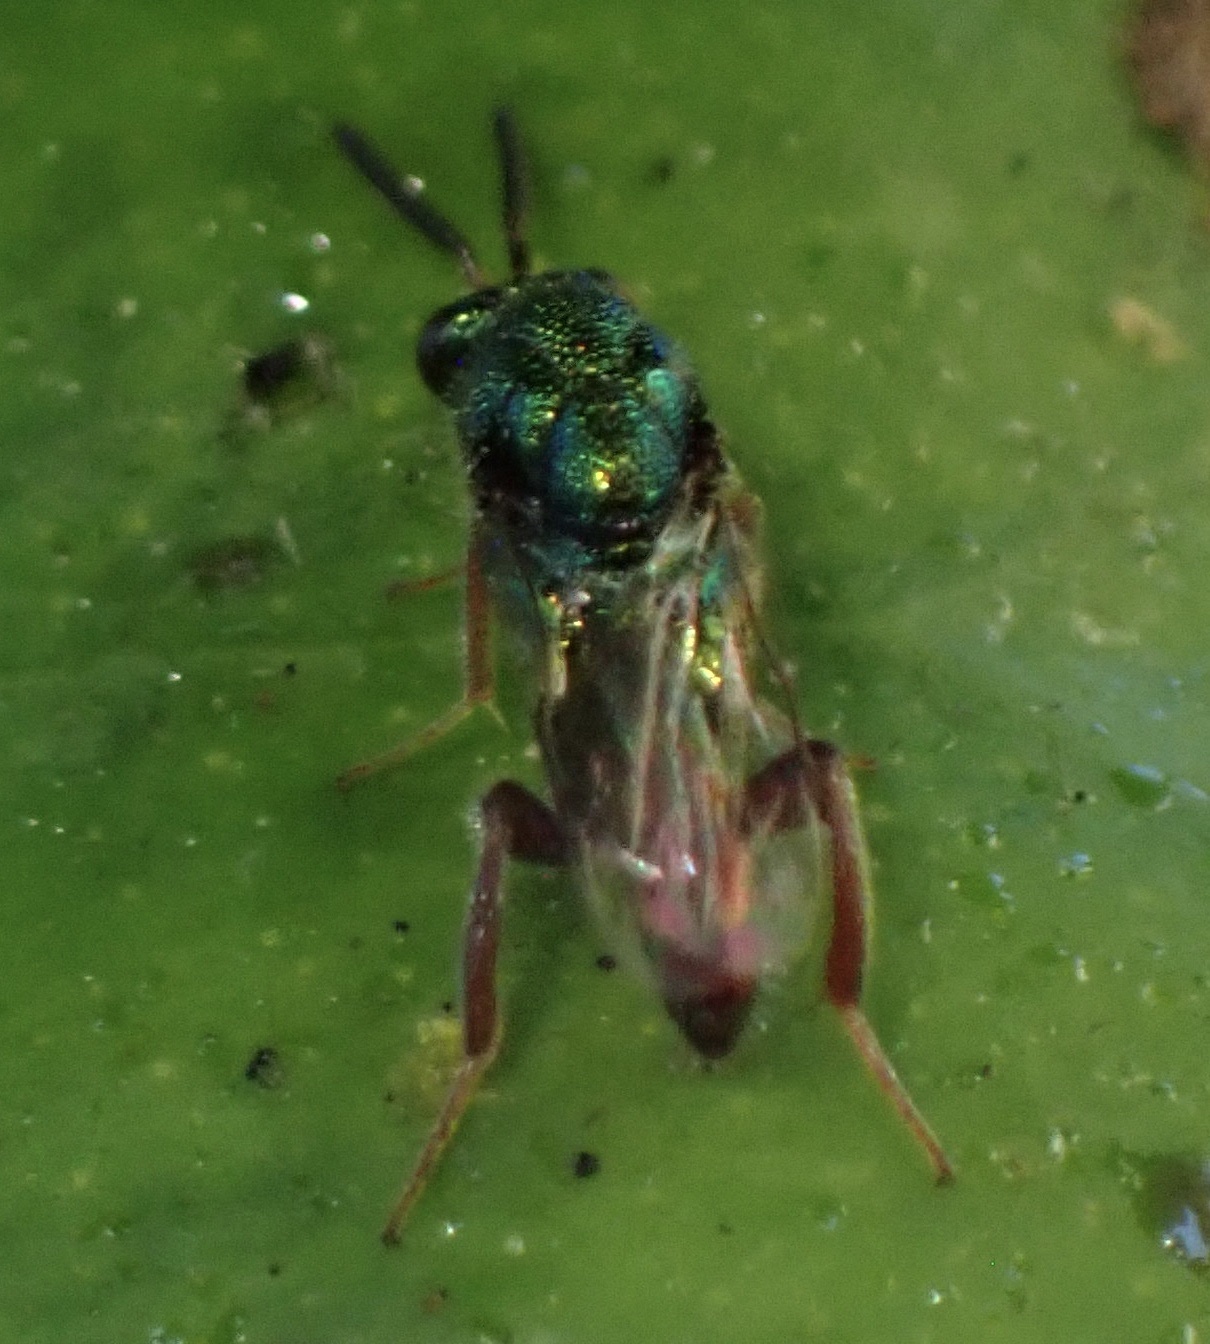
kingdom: Animalia
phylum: Arthropoda
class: Insecta
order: Hymenoptera
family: Torymidae
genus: Torymus
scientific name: Torymus calcaratus
